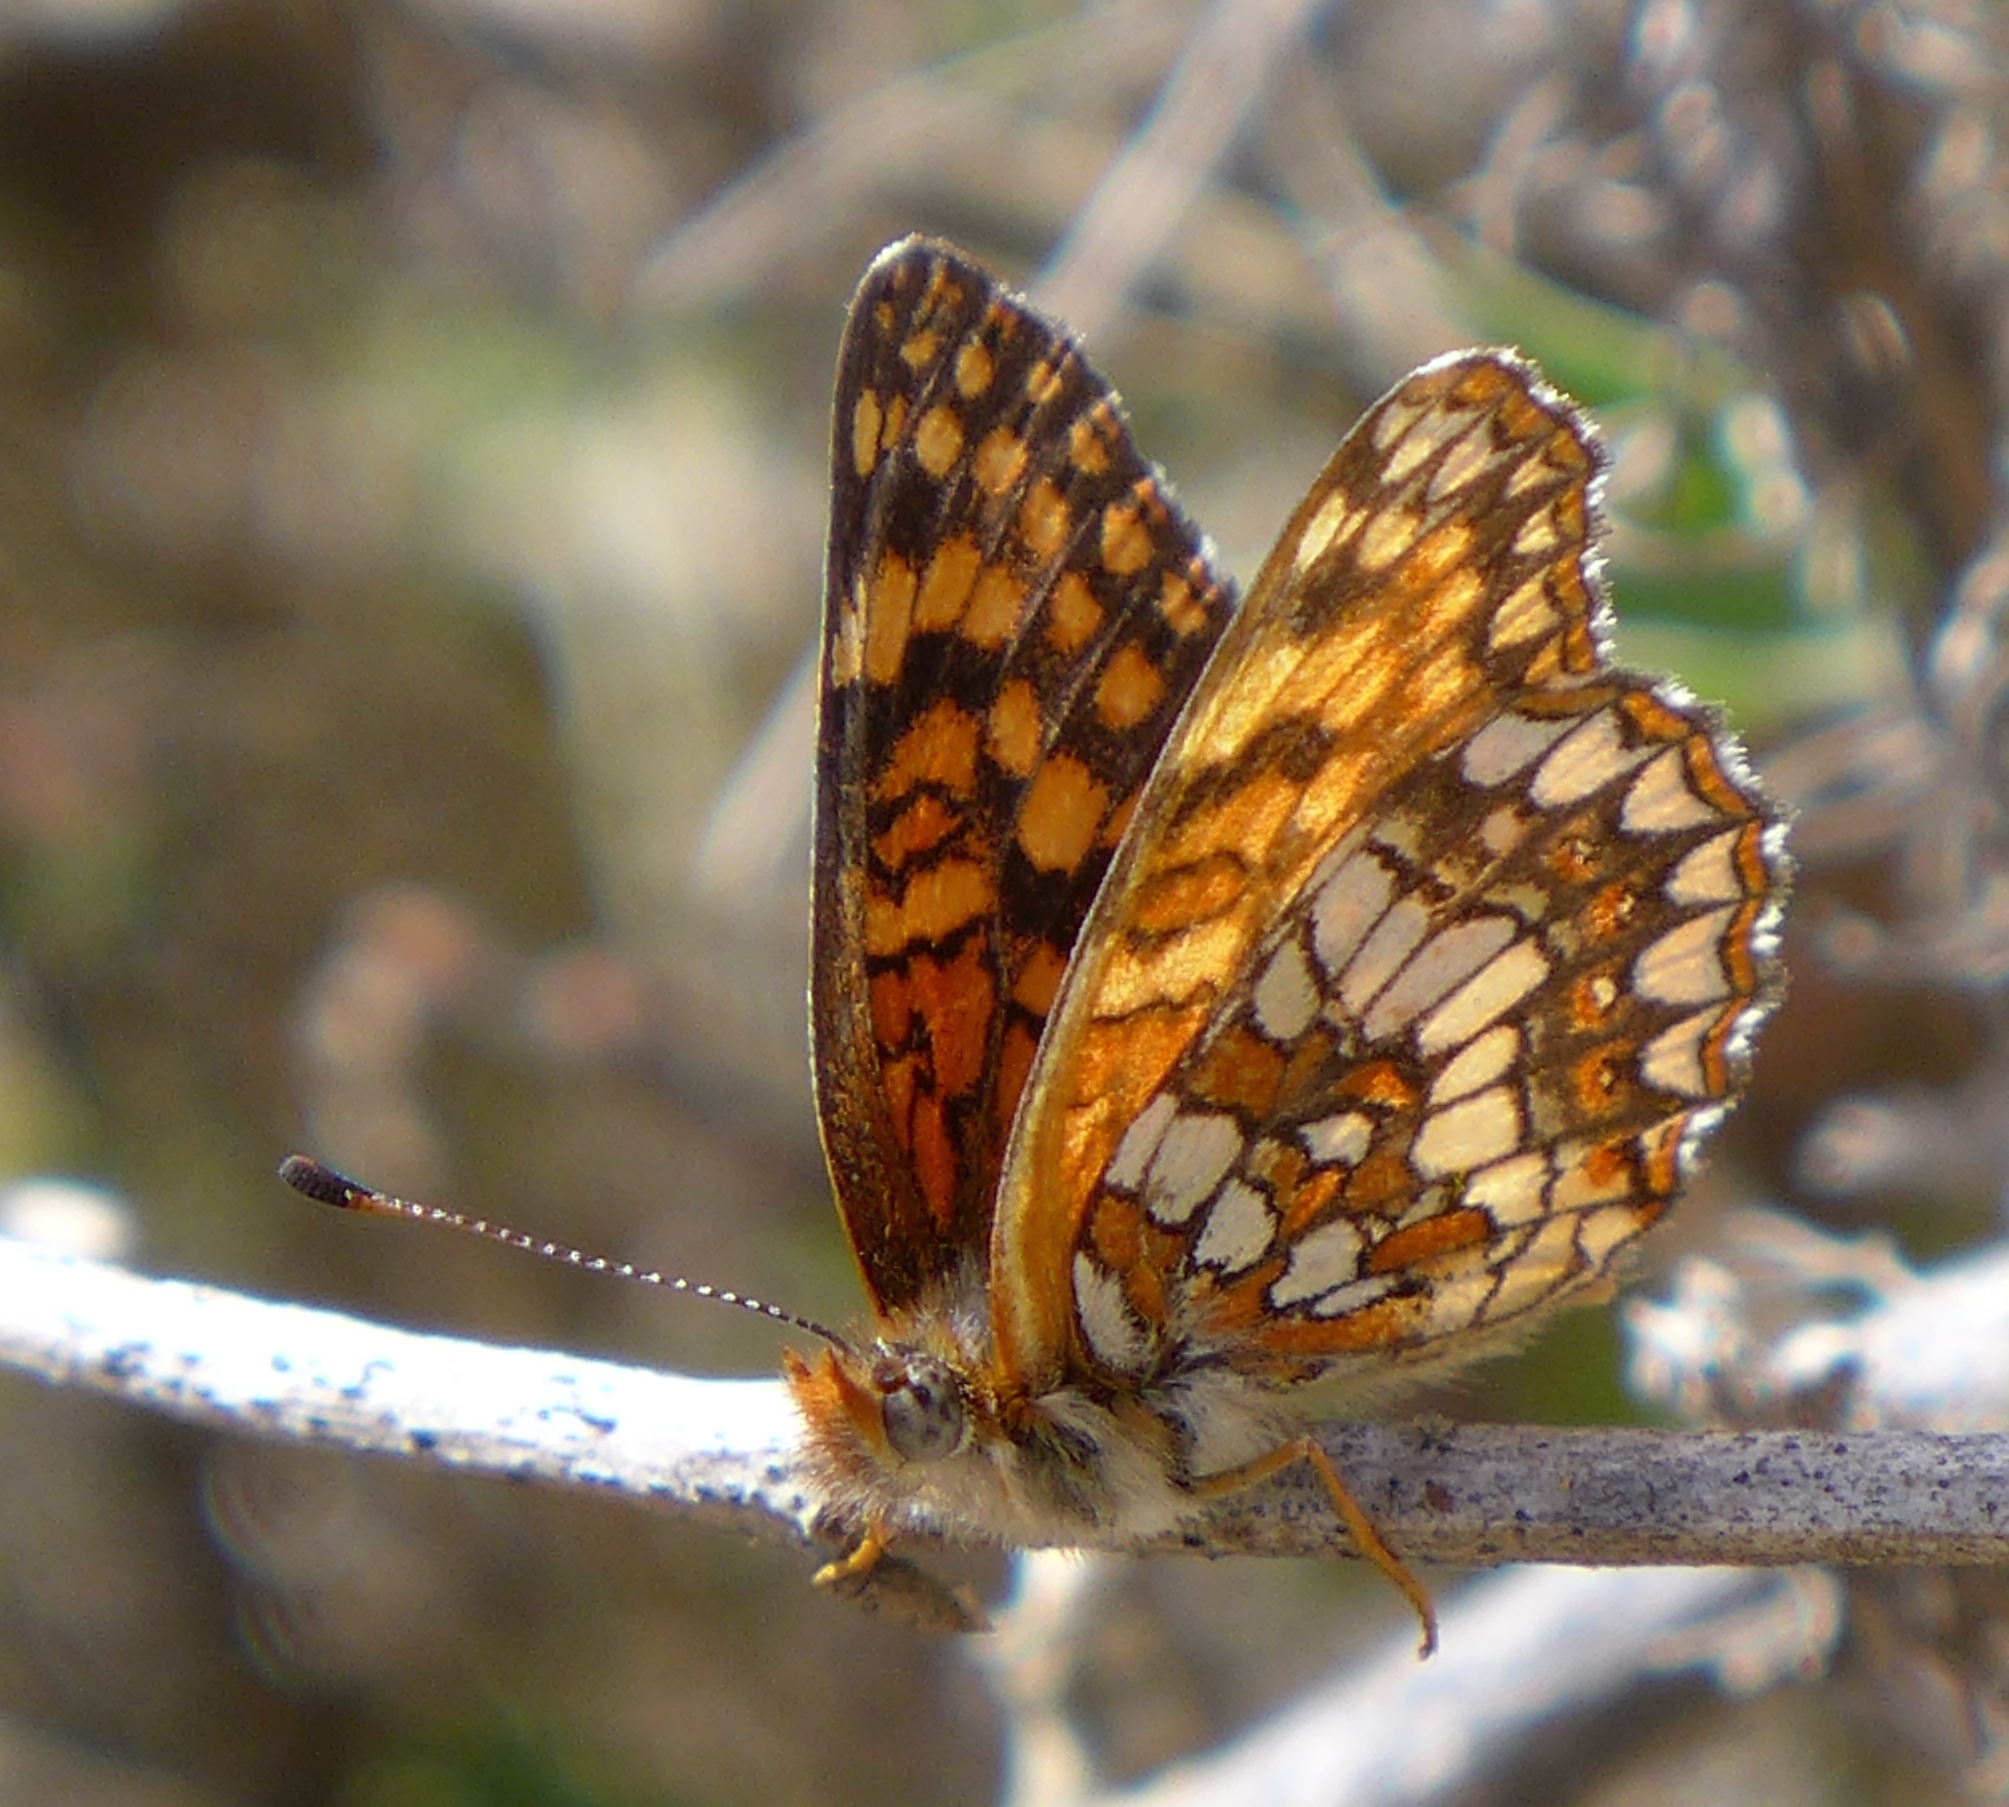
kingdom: Animalia
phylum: Arthropoda
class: Insecta
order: Lepidoptera
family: Nymphalidae
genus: Chlosyne
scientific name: Chlosyne gabbii
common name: Gabb's checkerspot
